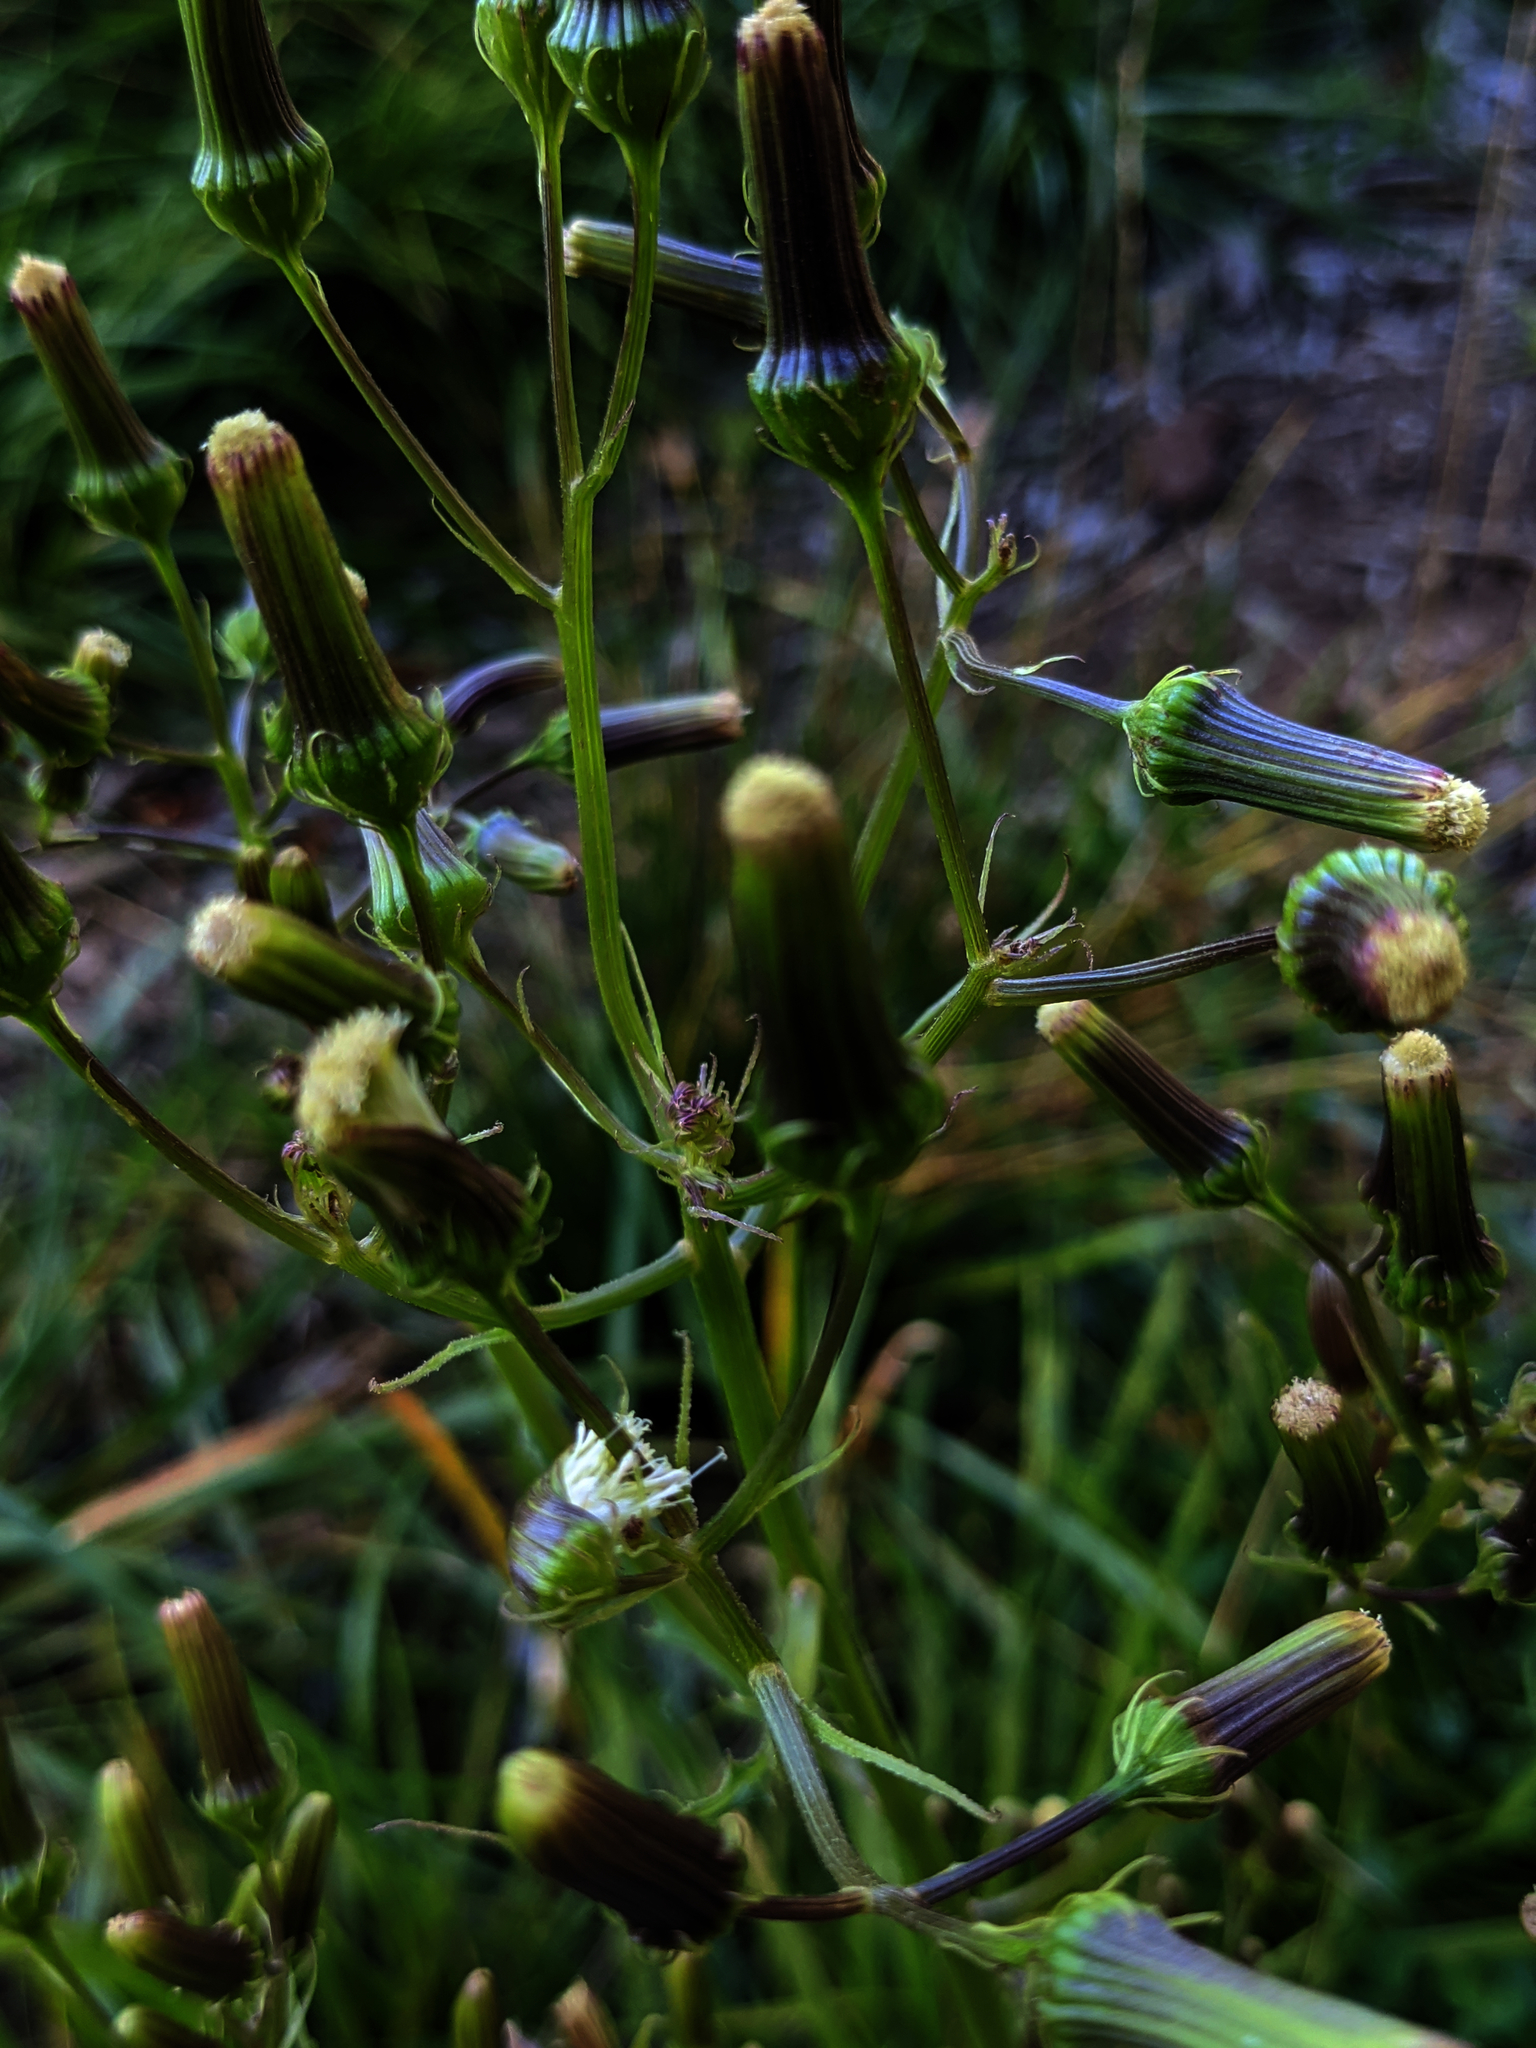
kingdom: Plantae
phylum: Tracheophyta
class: Magnoliopsida
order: Asterales
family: Asteraceae
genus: Erechtites
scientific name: Erechtites hieraciifolius
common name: American burnweed
